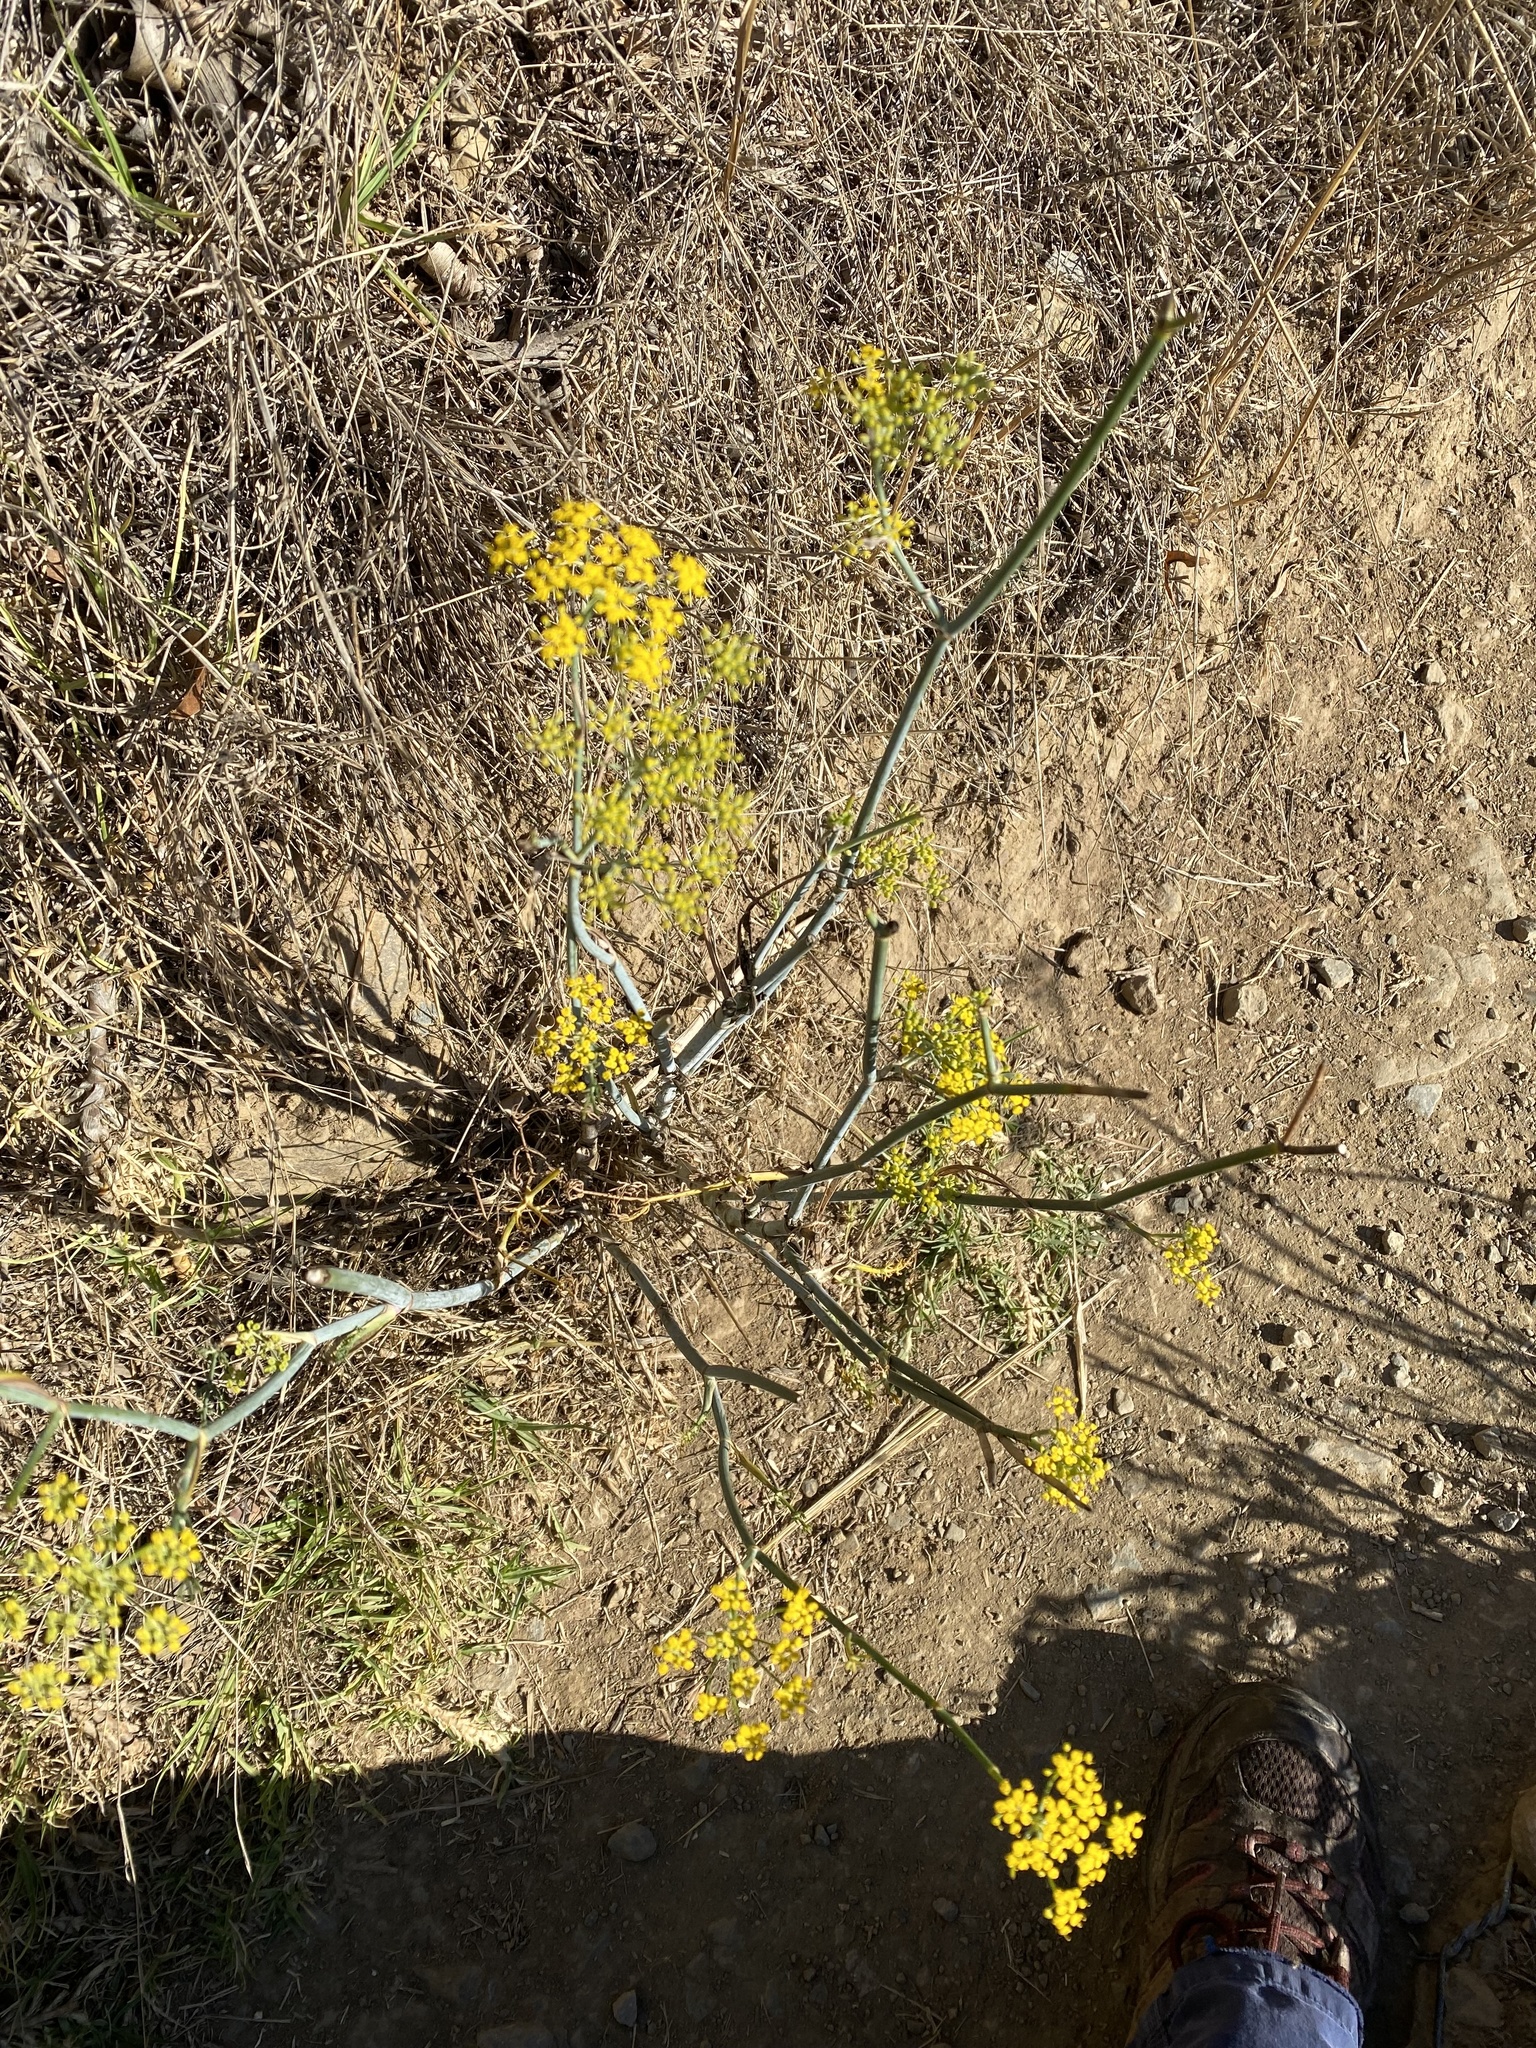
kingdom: Plantae
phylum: Tracheophyta
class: Magnoliopsida
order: Apiales
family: Apiaceae
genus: Foeniculum
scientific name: Foeniculum vulgare
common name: Fennel
